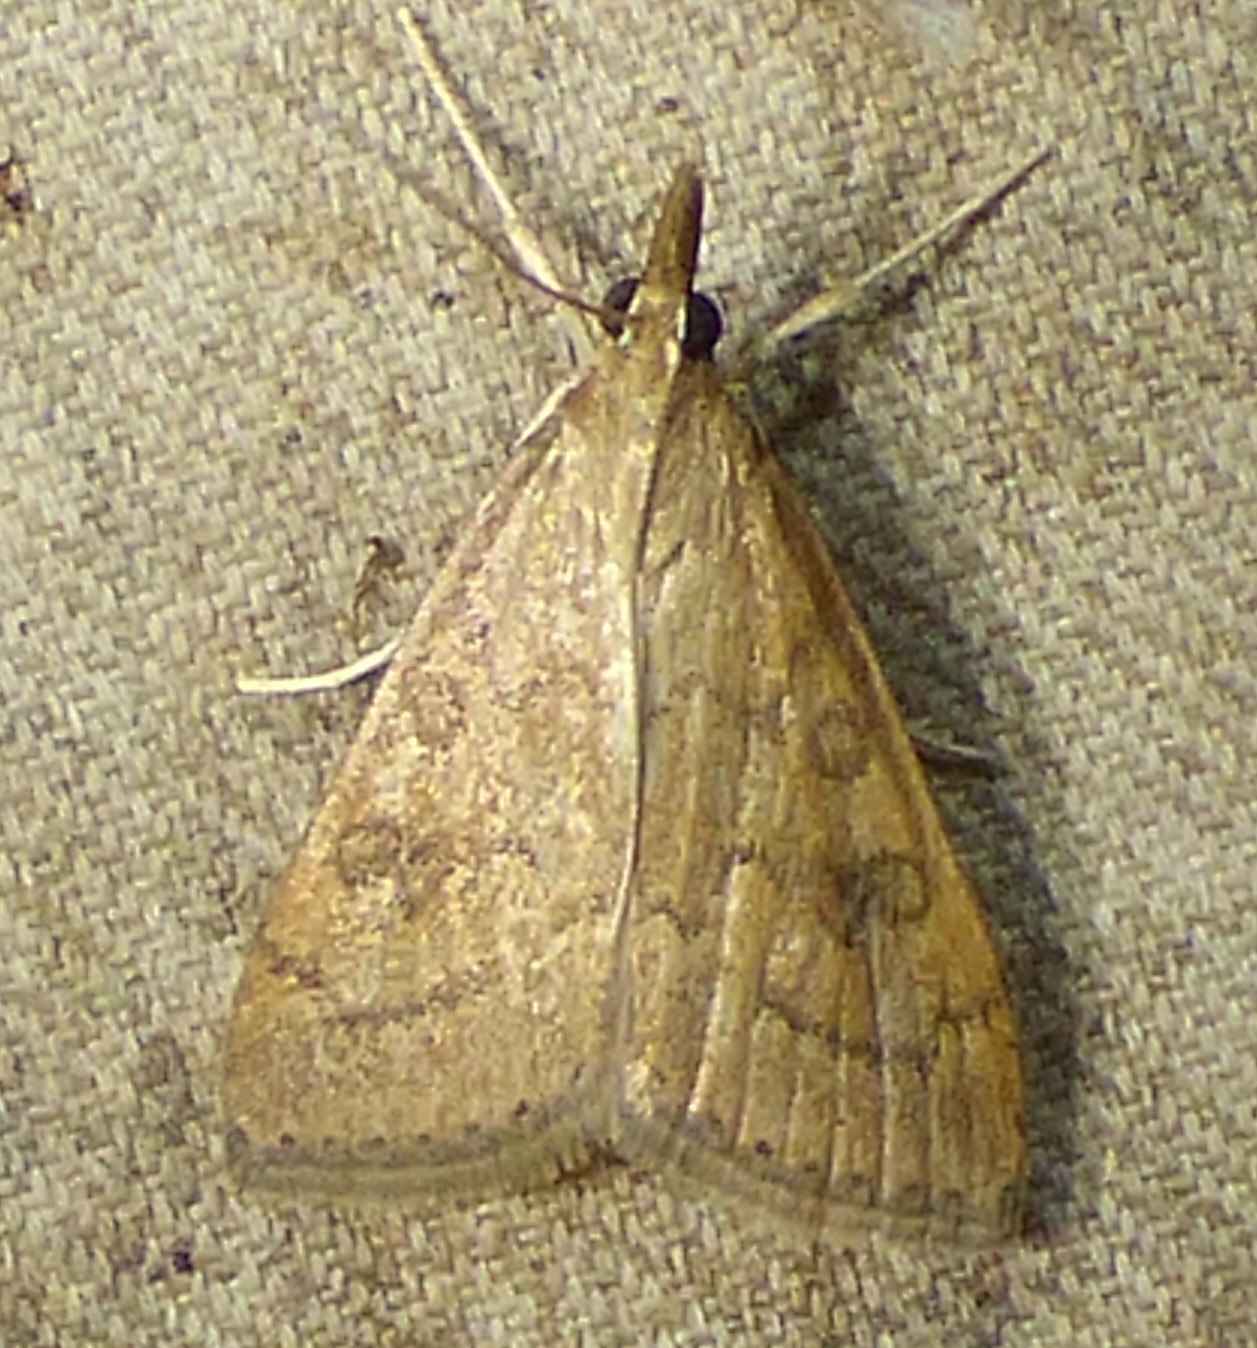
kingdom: Animalia
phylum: Arthropoda
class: Insecta
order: Lepidoptera
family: Crambidae
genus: Udea
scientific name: Udea rubigalis
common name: Celery leaftier moth
